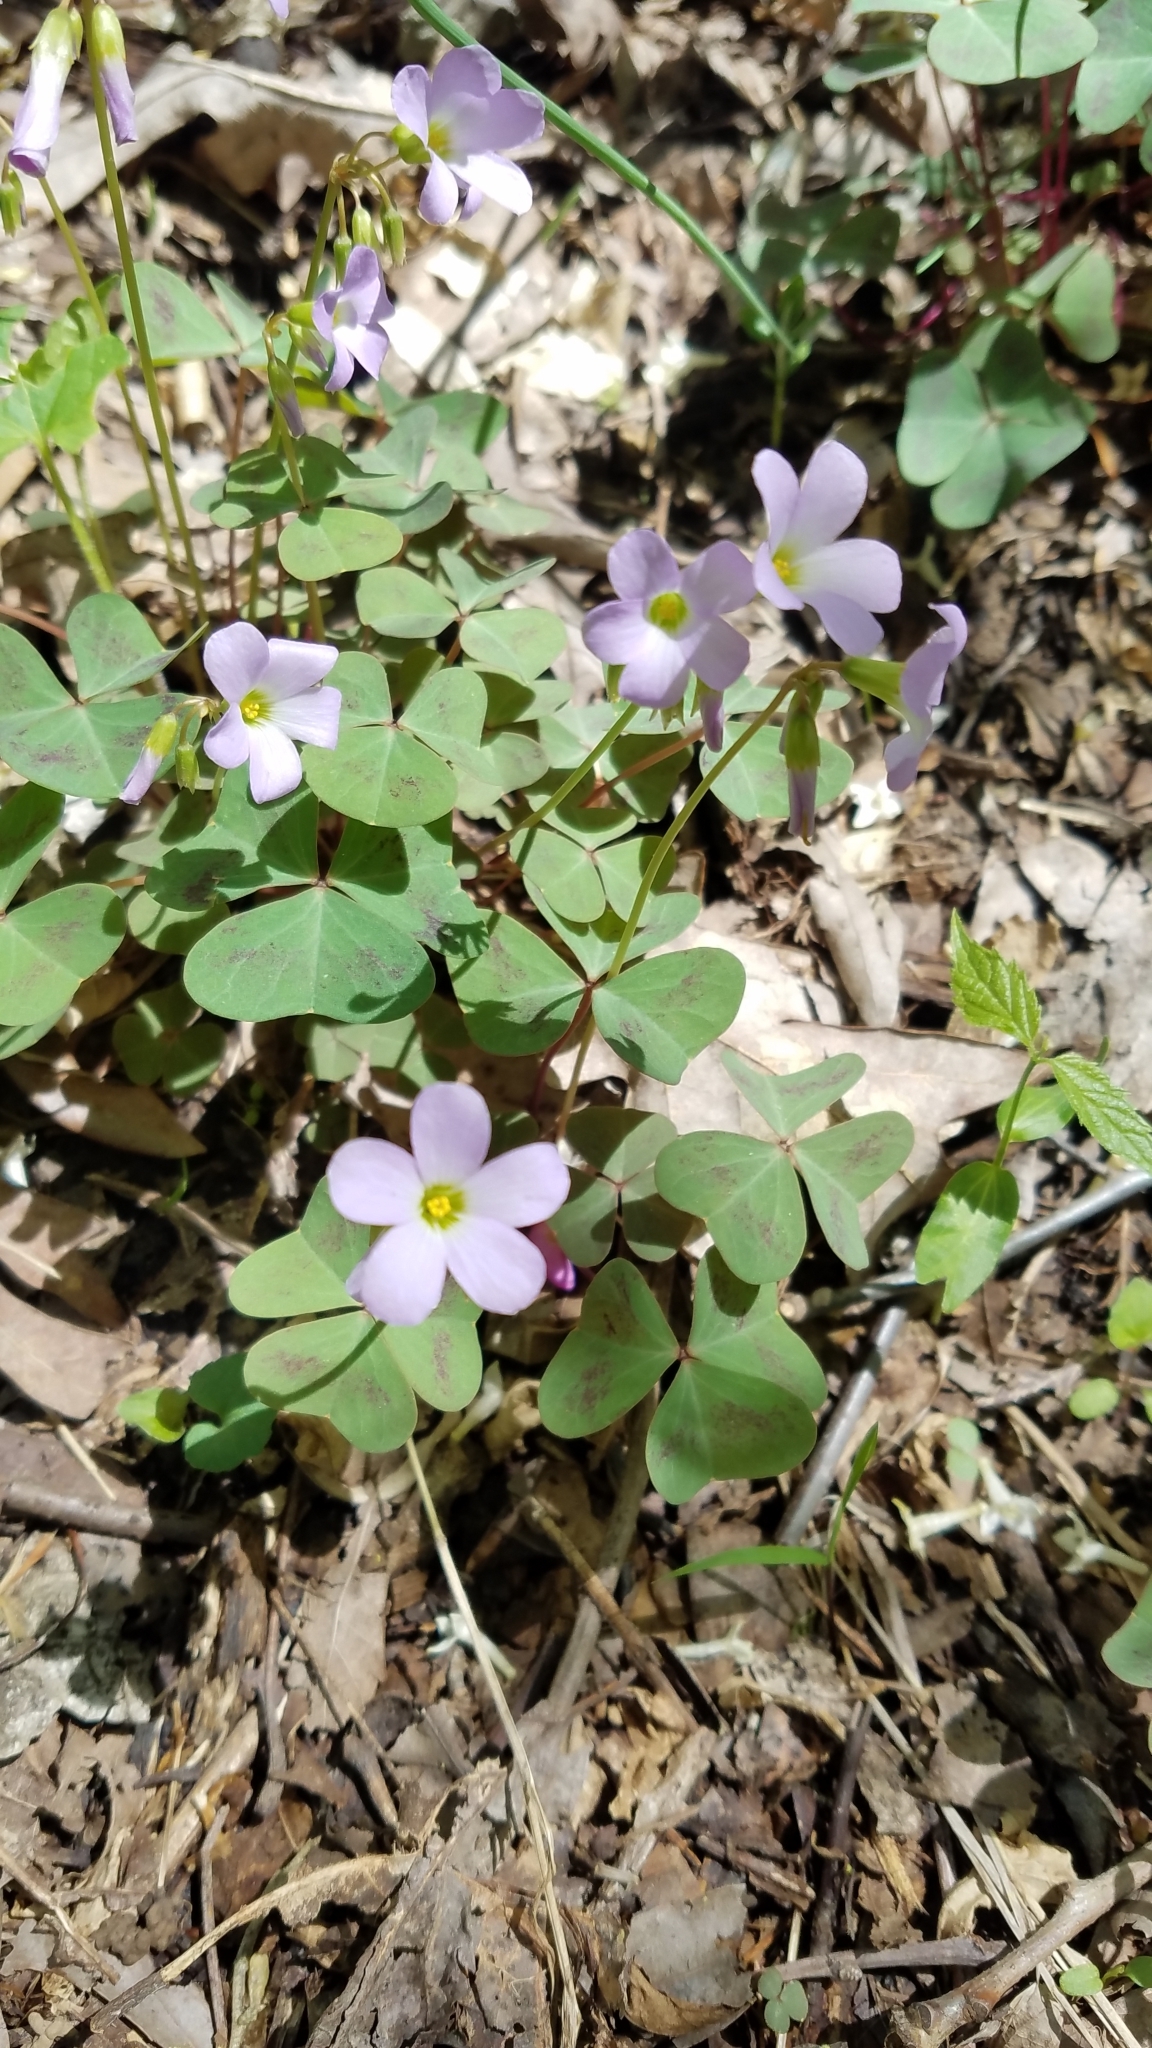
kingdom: Plantae
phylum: Tracheophyta
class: Magnoliopsida
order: Oxalidales
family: Oxalidaceae
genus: Oxalis
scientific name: Oxalis violacea
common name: Violet wood-sorrel
